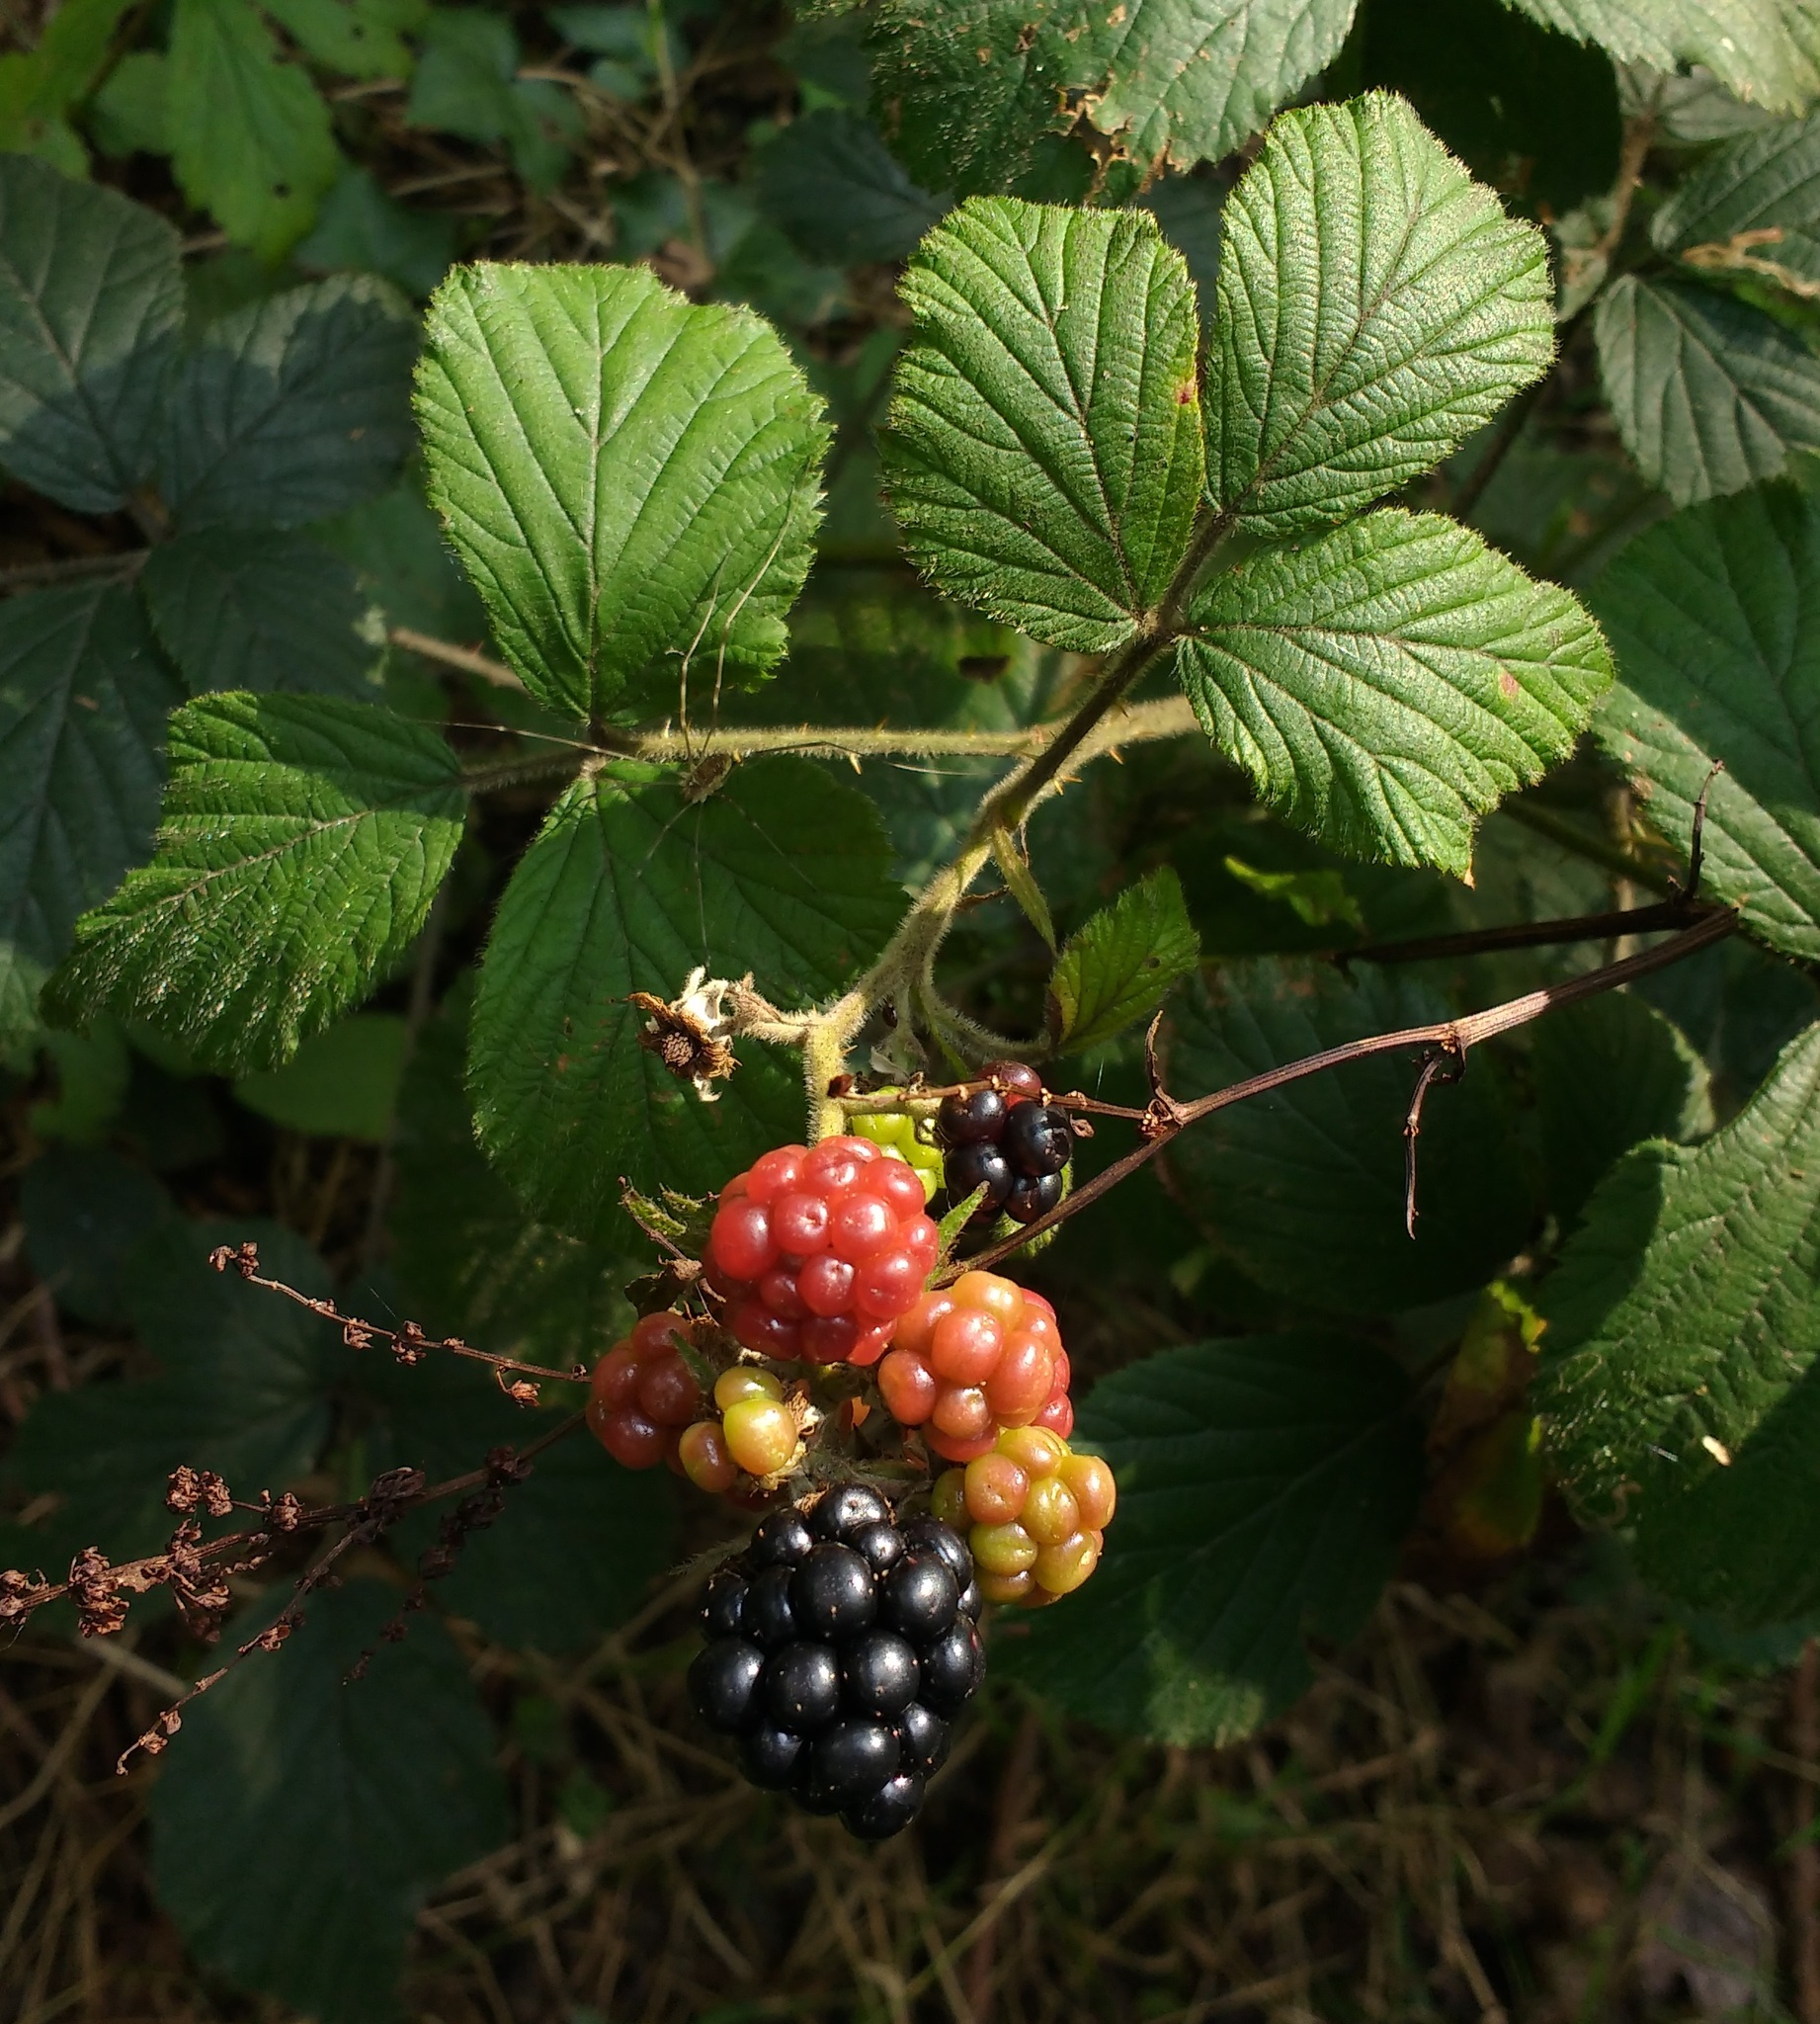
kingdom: Plantae
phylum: Tracheophyta
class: Magnoliopsida
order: Rosales
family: Rosaceae
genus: Rubus
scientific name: Rubus fruticosus
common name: Blackberry, bramble
